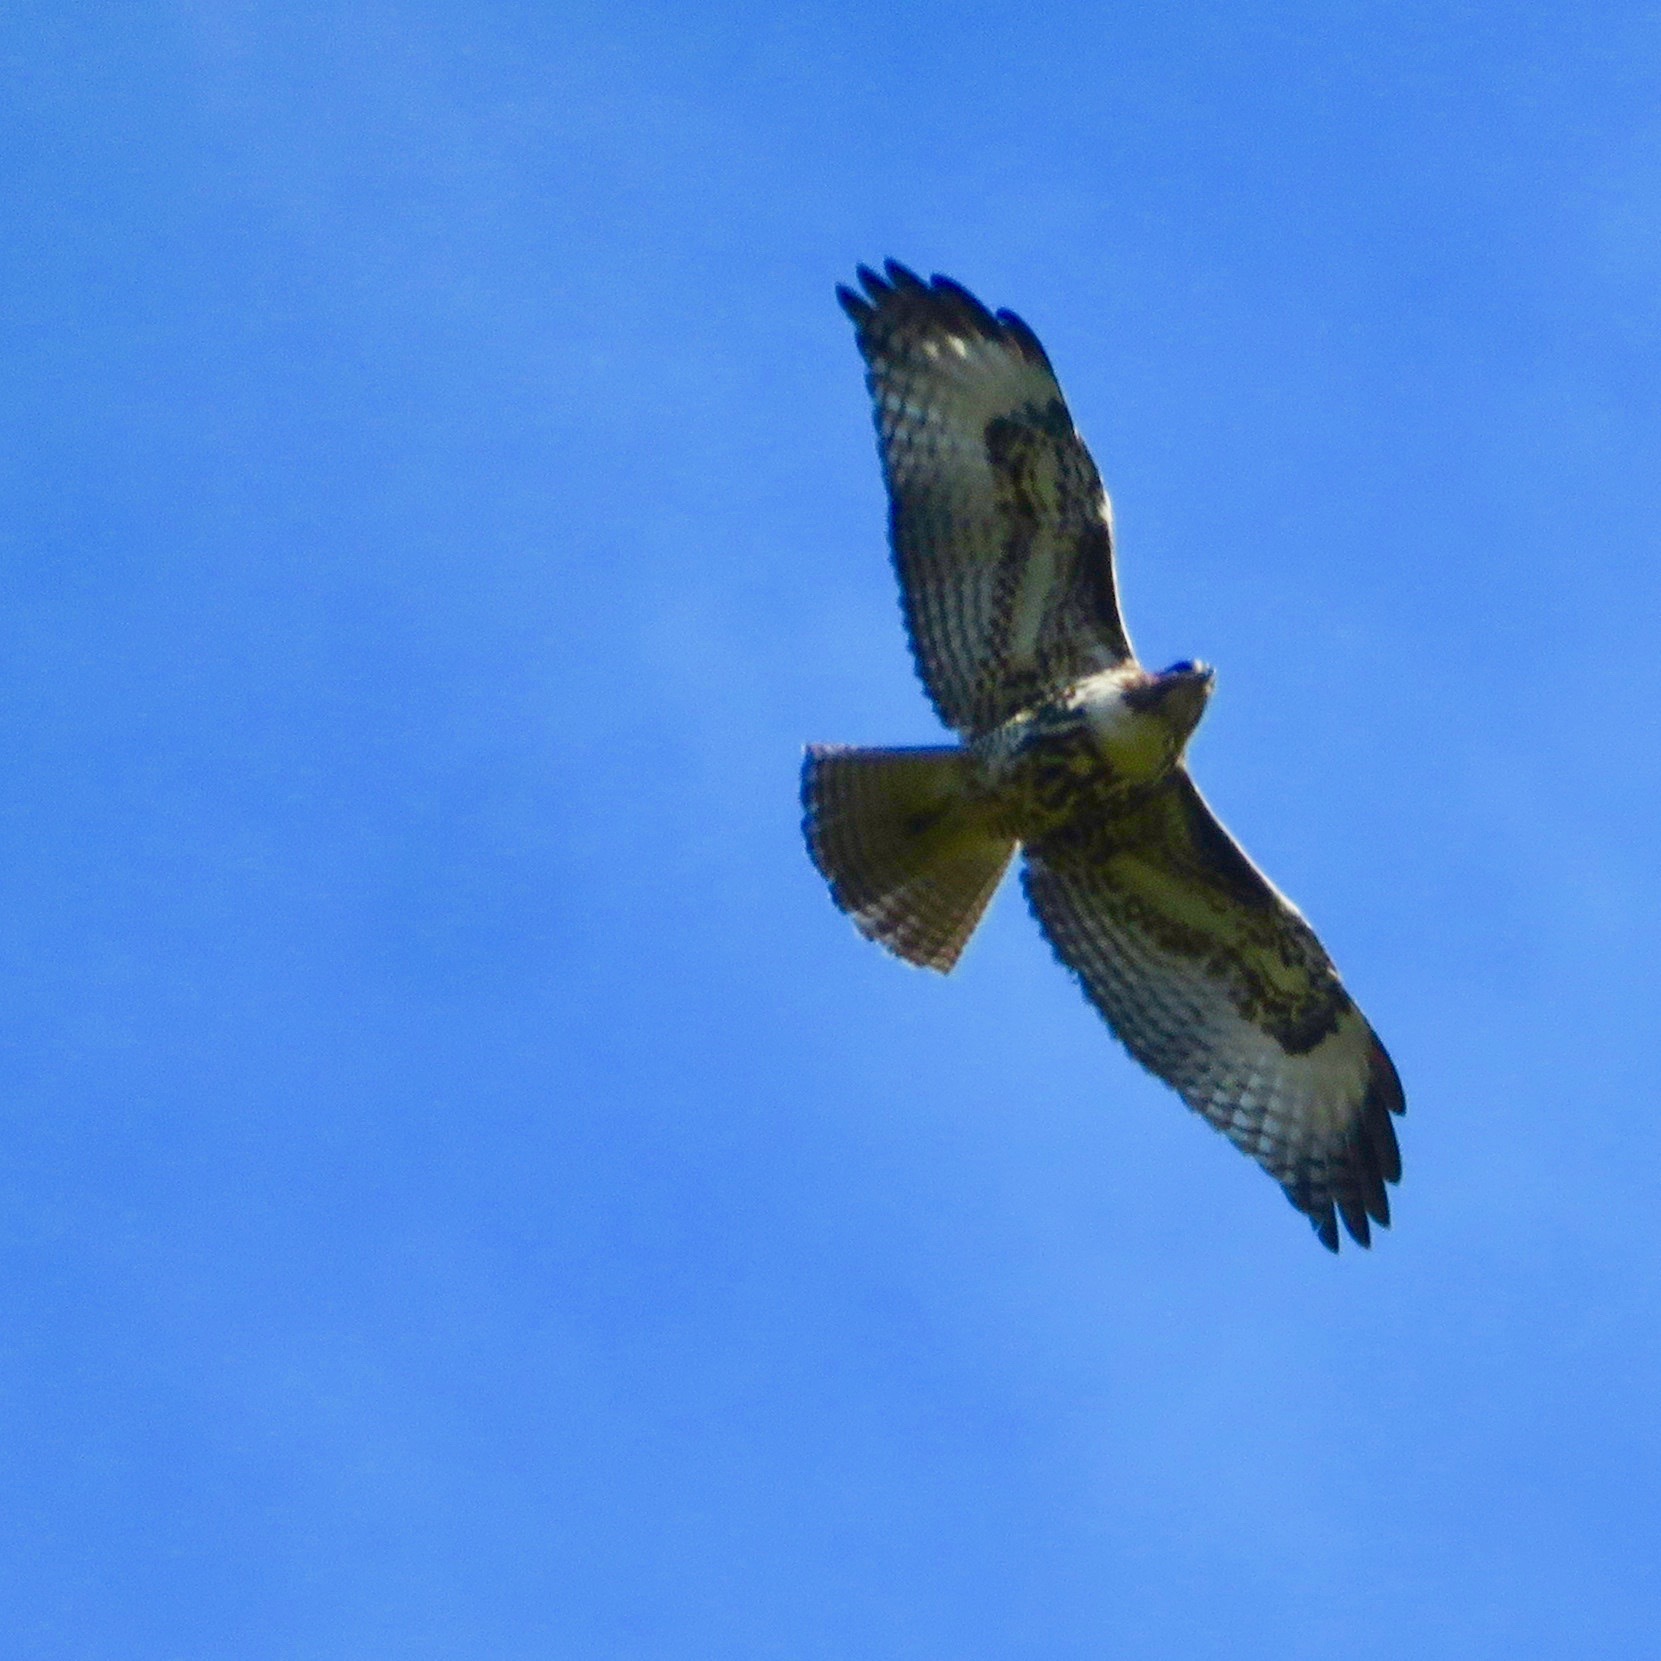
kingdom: Animalia
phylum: Chordata
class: Aves
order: Accipitriformes
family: Accipitridae
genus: Buteo
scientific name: Buteo jamaicensis
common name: Red-tailed hawk
